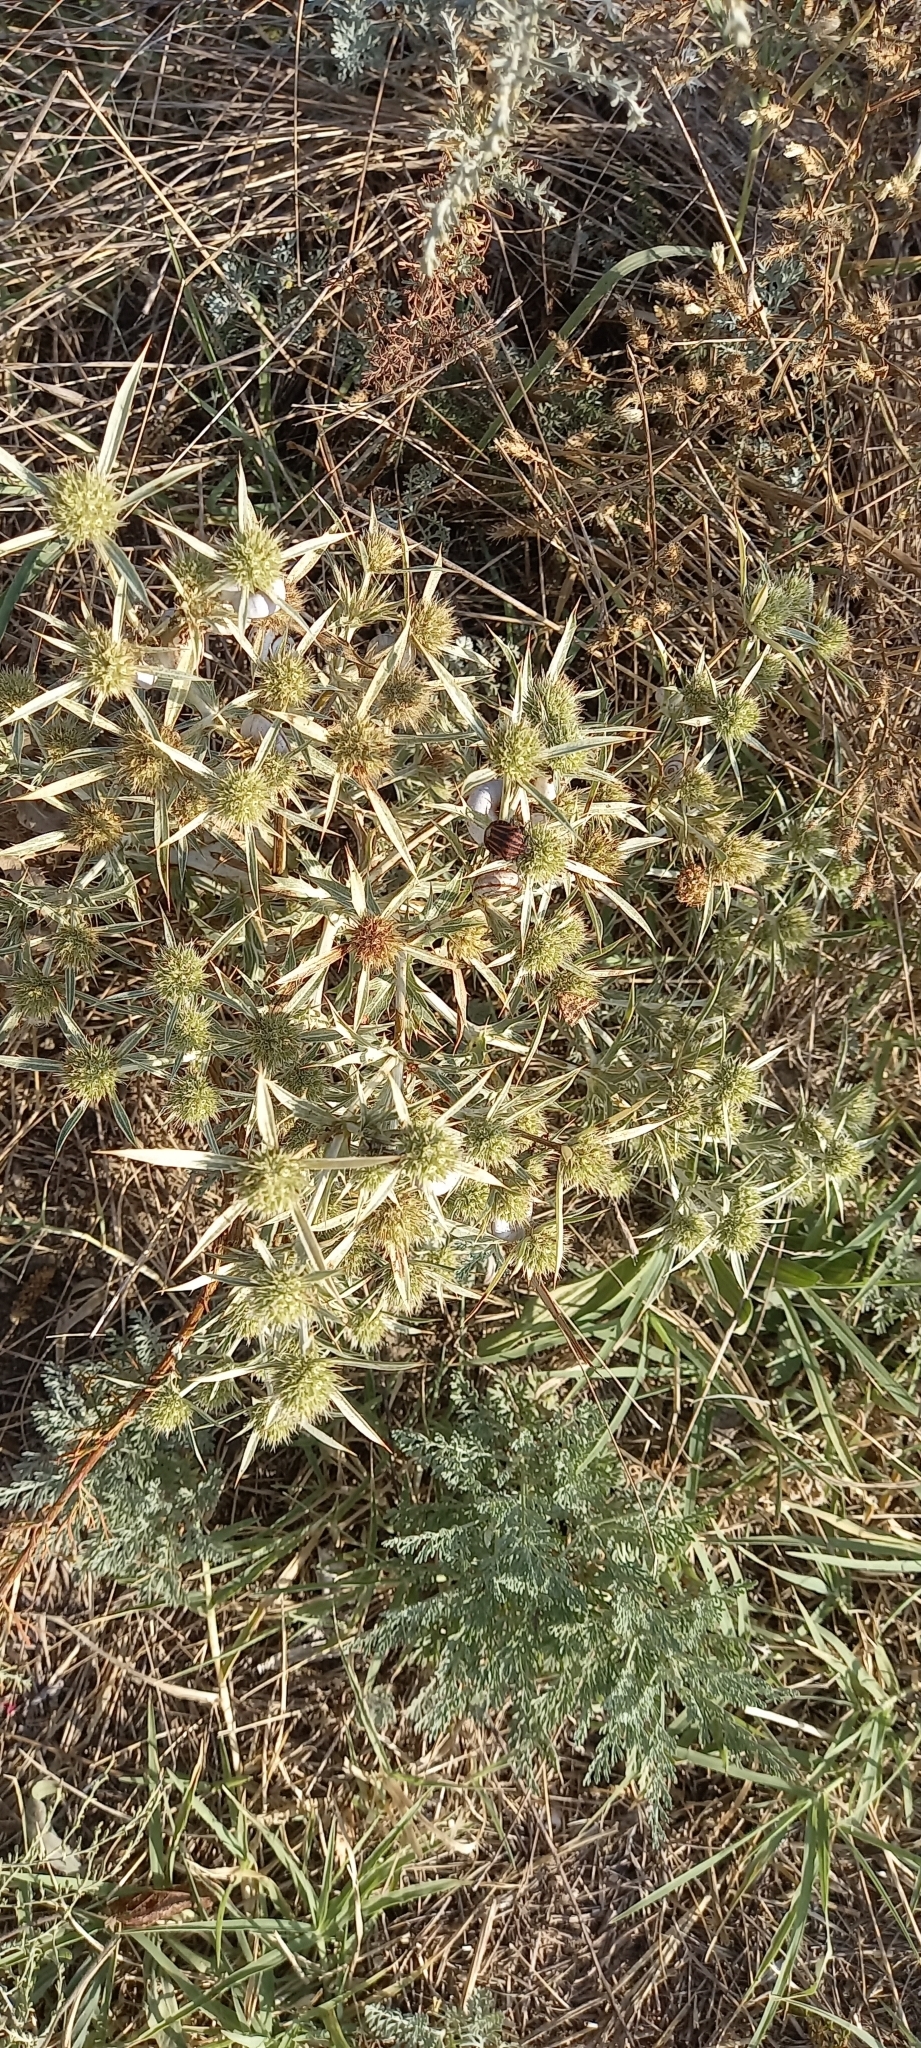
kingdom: Plantae
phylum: Tracheophyta
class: Magnoliopsida
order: Apiales
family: Apiaceae
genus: Eryngium
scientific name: Eryngium campestre
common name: Field eryngo
